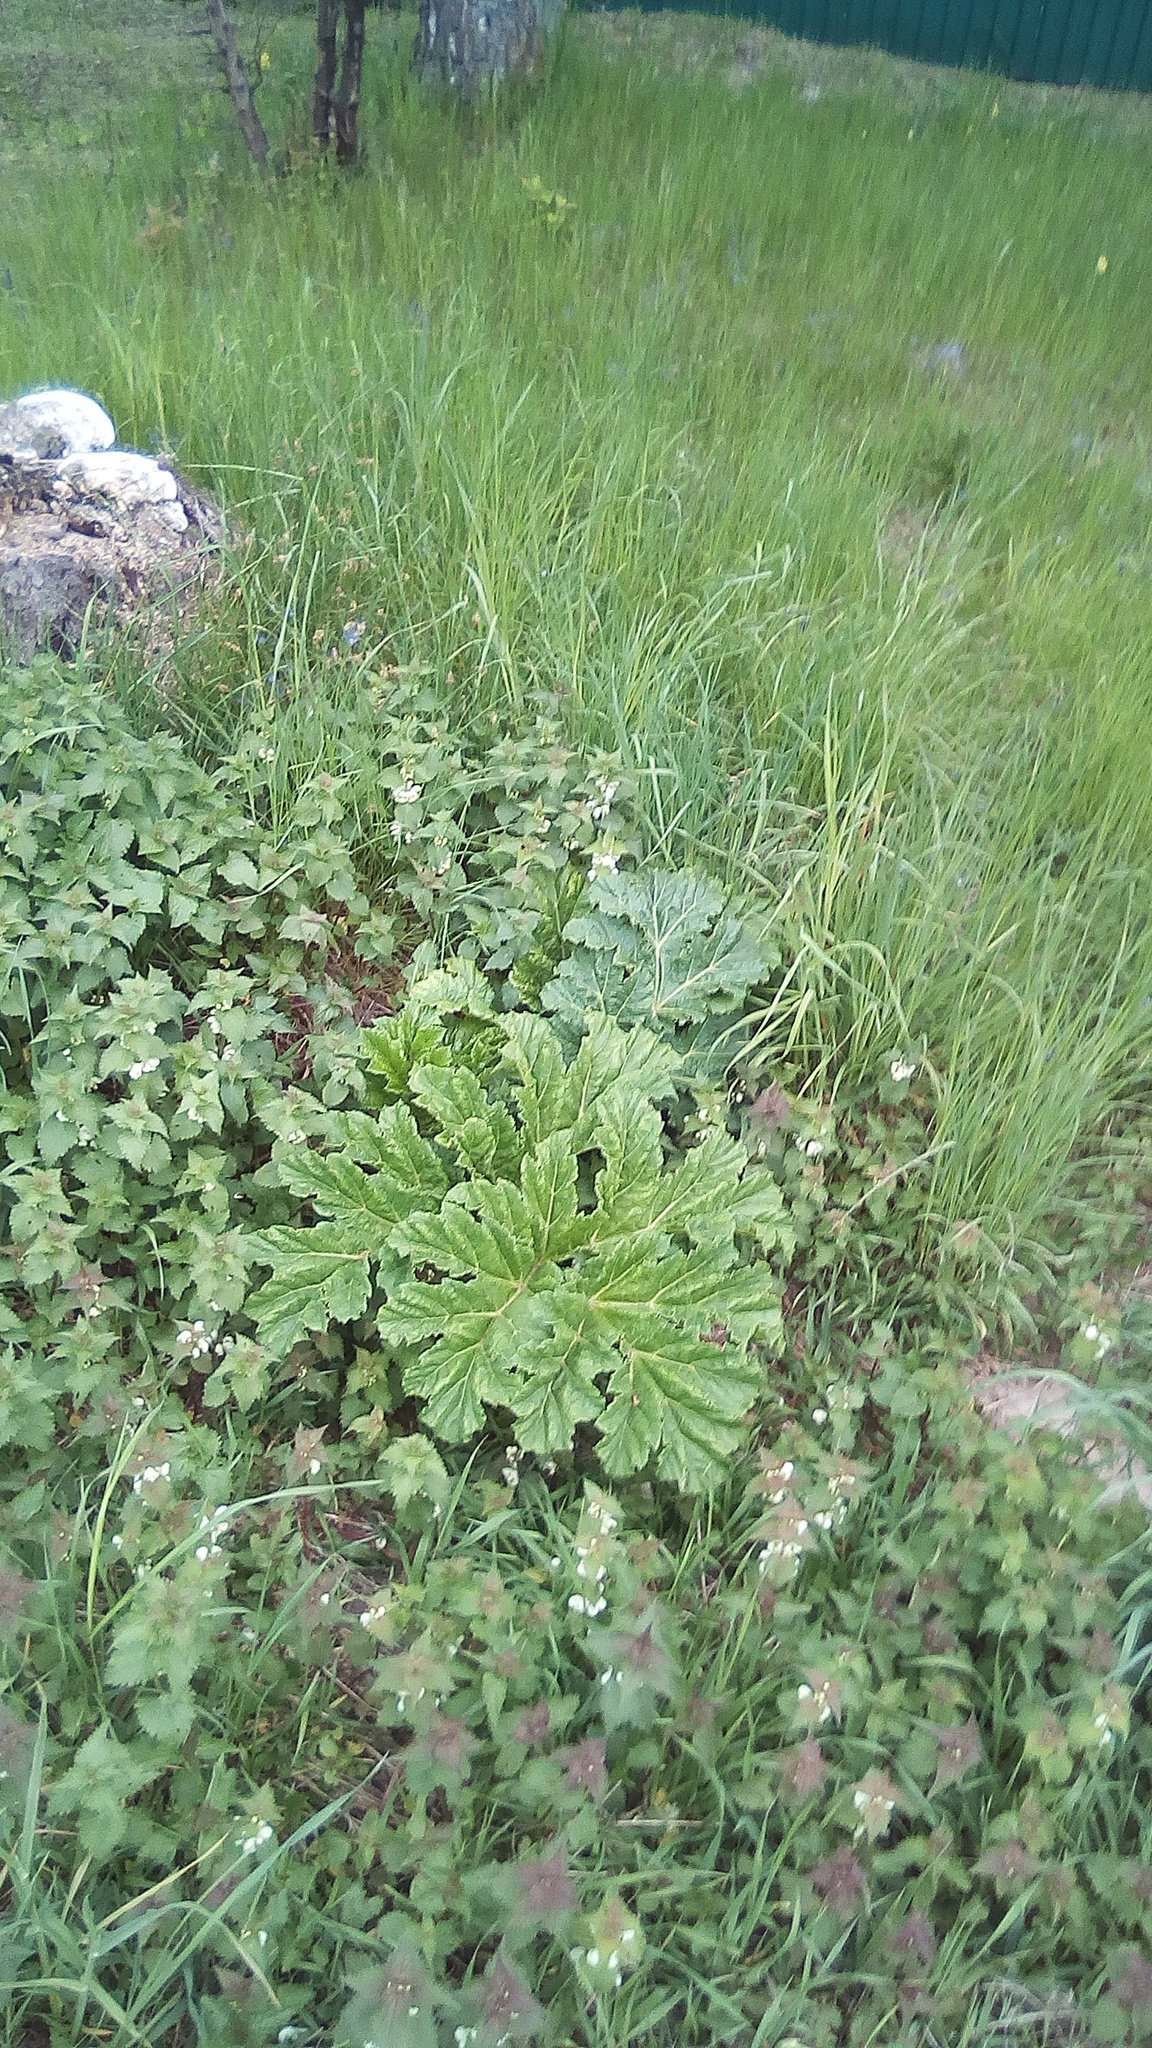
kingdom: Plantae
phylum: Tracheophyta
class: Magnoliopsida
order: Apiales
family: Apiaceae
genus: Heracleum
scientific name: Heracleum sosnowskyi
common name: Sosnowsky's hogweed
